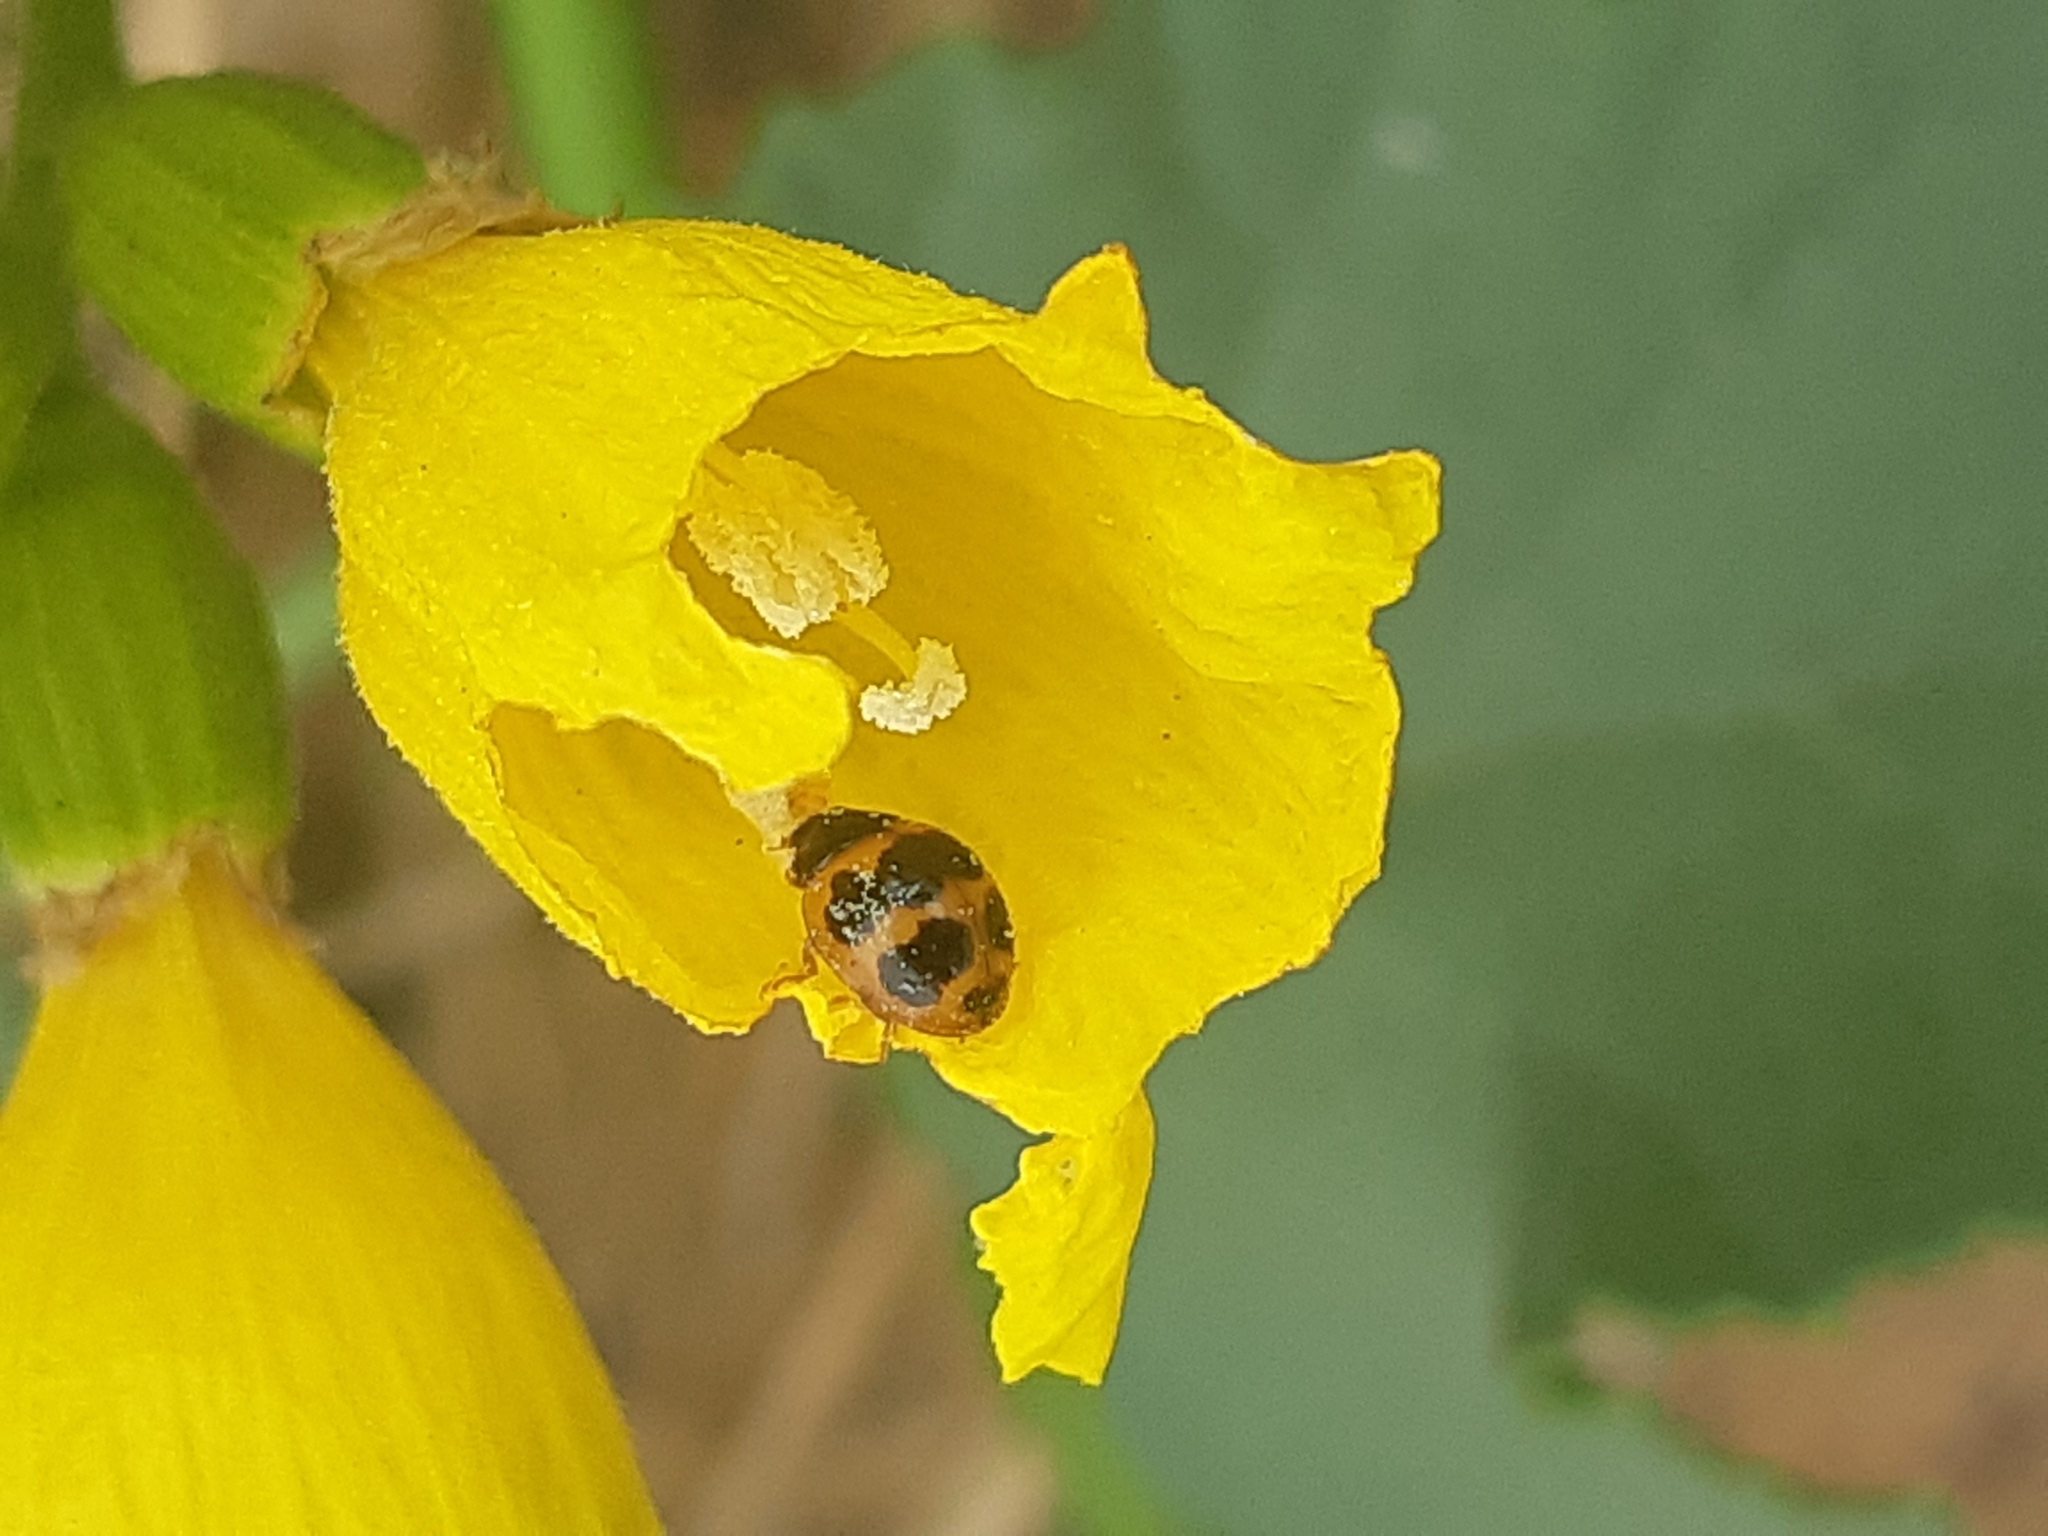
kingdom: Animalia
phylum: Arthropoda
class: Insecta
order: Coleoptera
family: Coccinellidae
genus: Zagreus
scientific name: Zagreus
